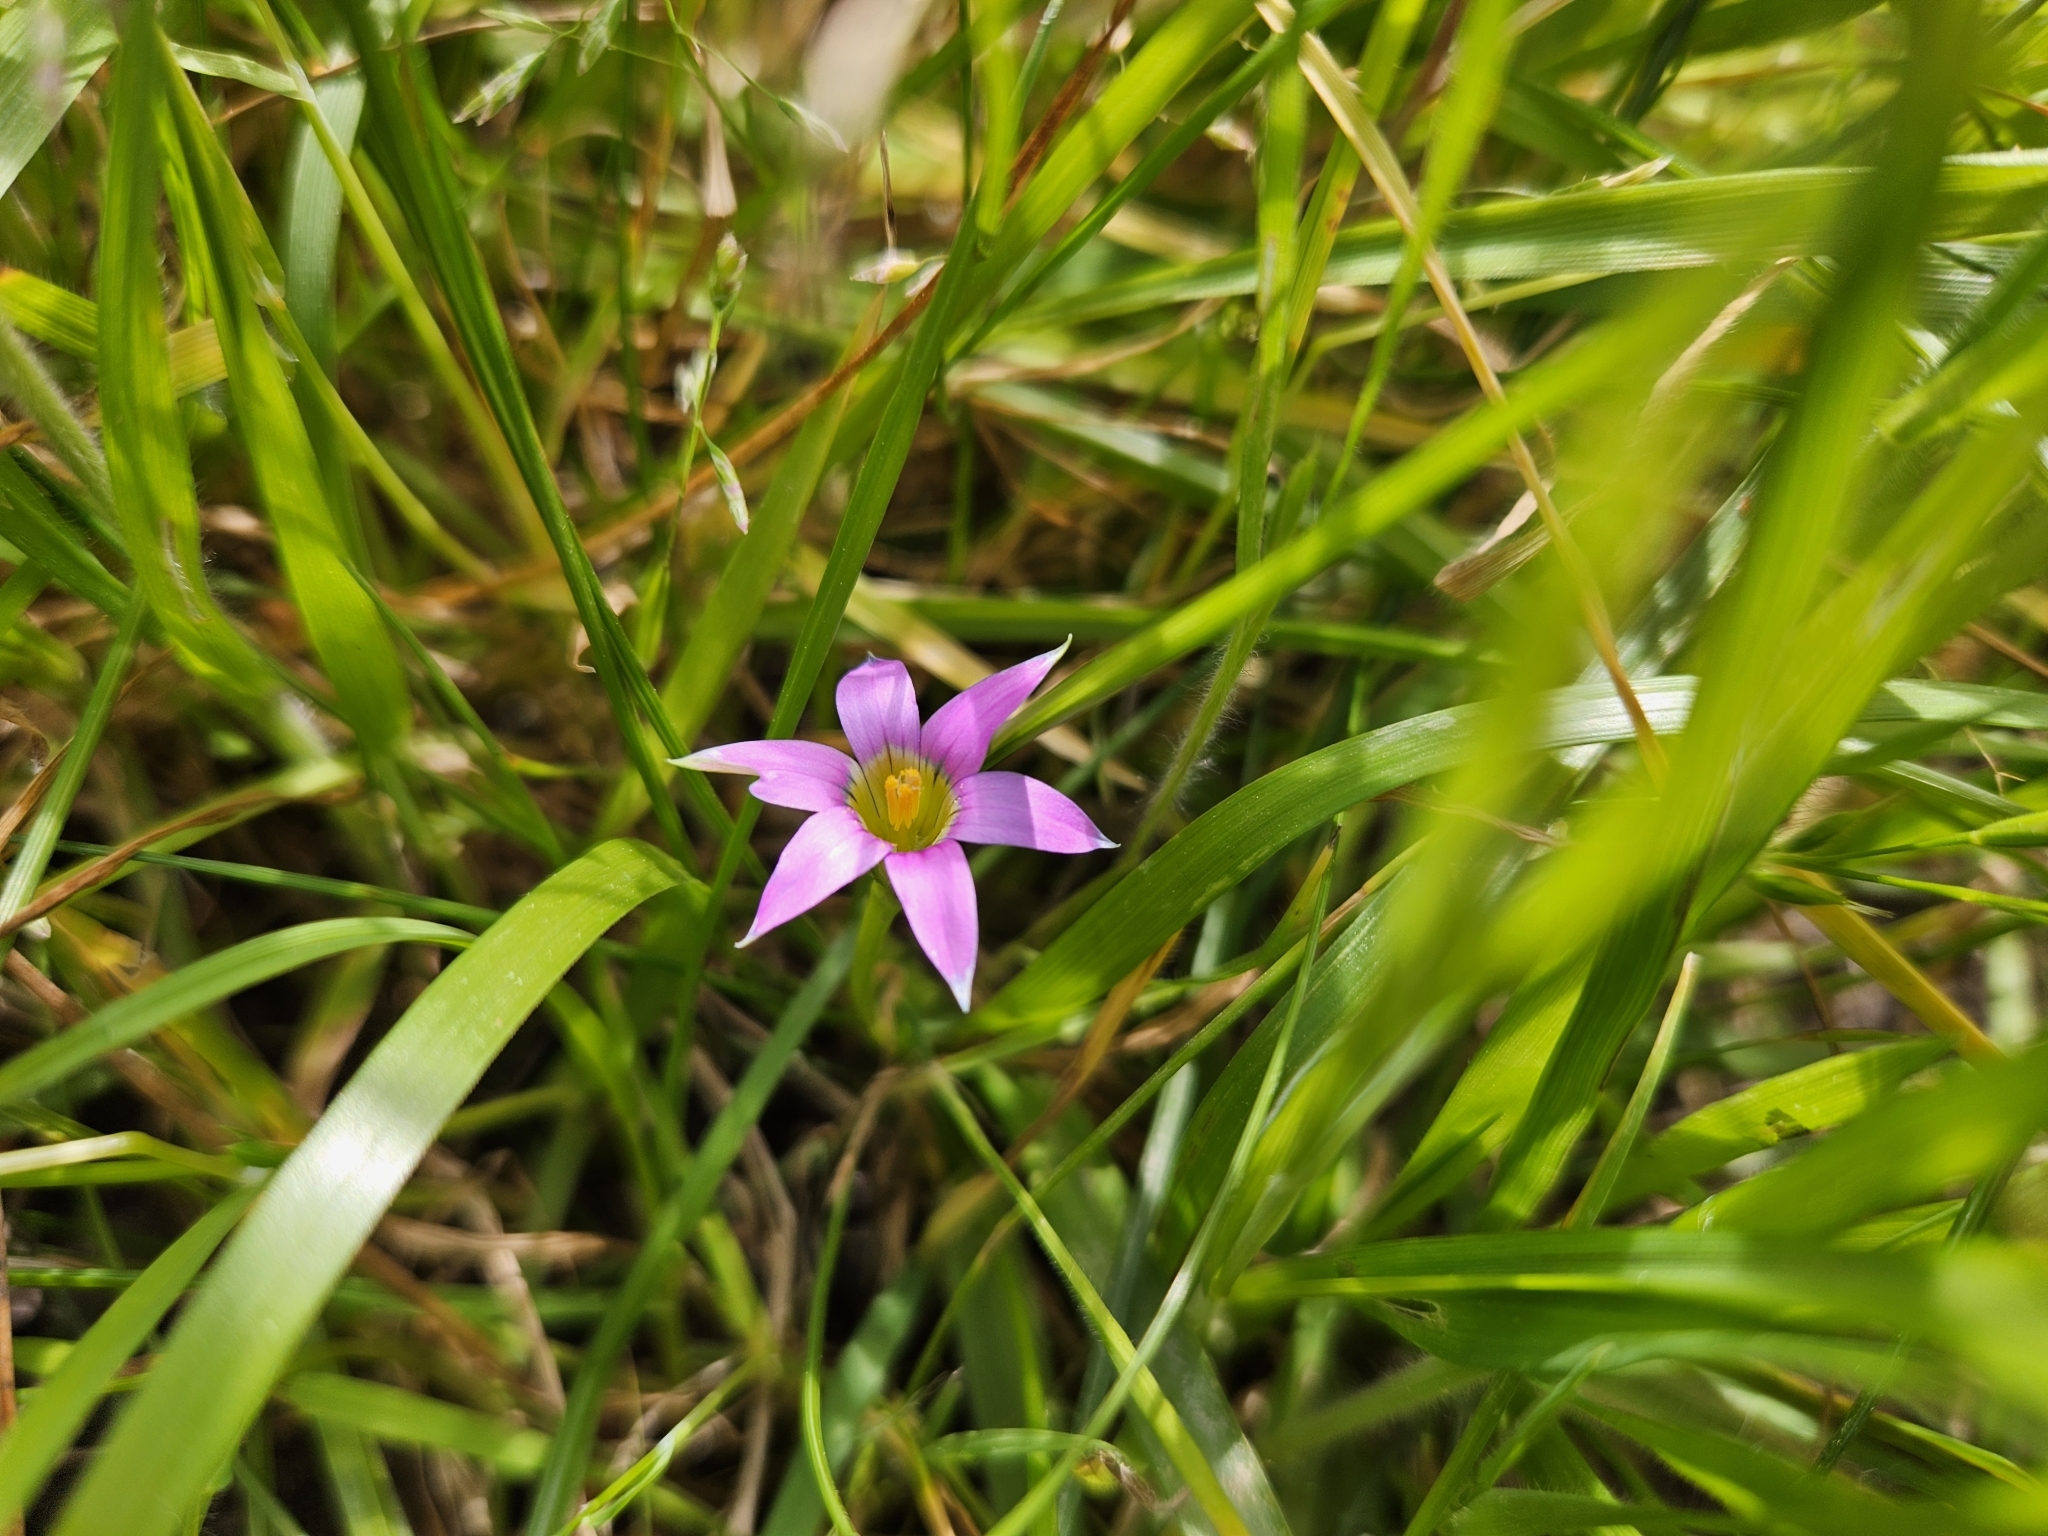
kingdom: Plantae
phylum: Tracheophyta
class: Liliopsida
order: Asparagales
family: Iridaceae
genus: Romulea
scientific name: Romulea rosea
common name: Oniongrass
